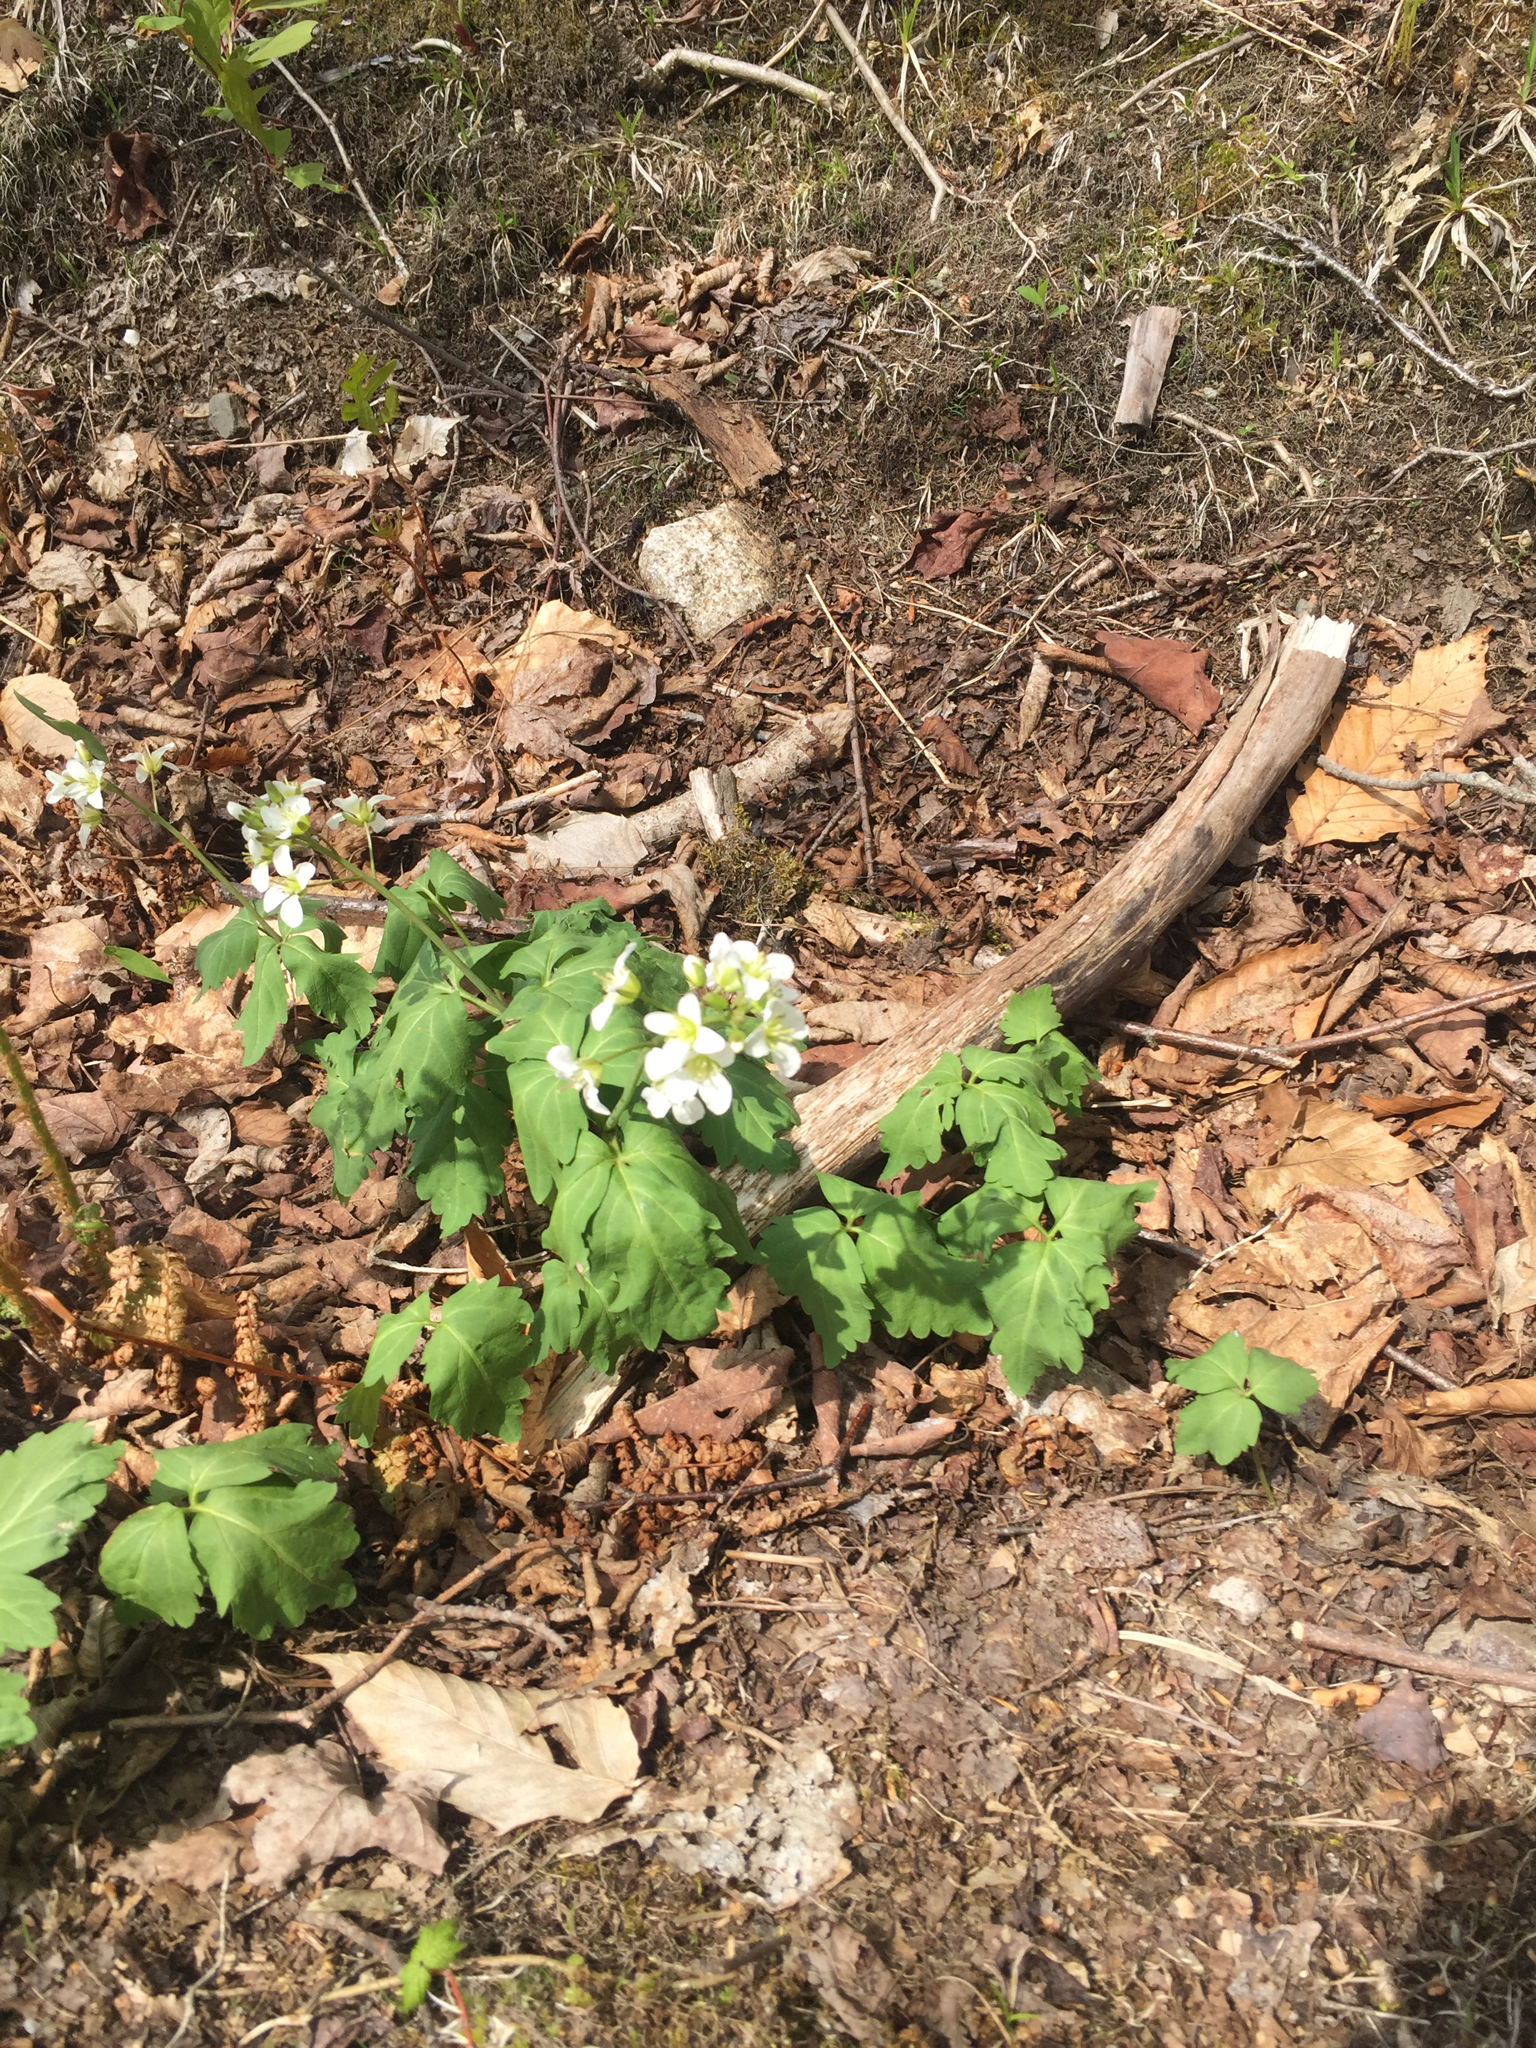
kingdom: Plantae
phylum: Tracheophyta
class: Magnoliopsida
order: Brassicales
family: Brassicaceae
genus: Cardamine
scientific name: Cardamine diphylla
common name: Broad-leaved toothwort
